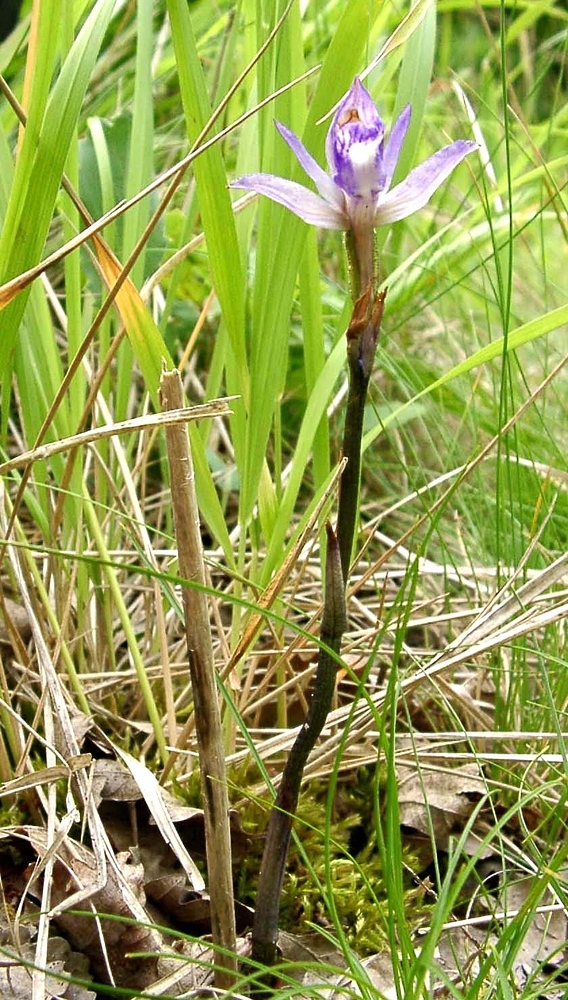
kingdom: Plantae
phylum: Tracheophyta
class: Liliopsida
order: Asparagales
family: Orchidaceae
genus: Limodorum
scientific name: Limodorum abortivum
